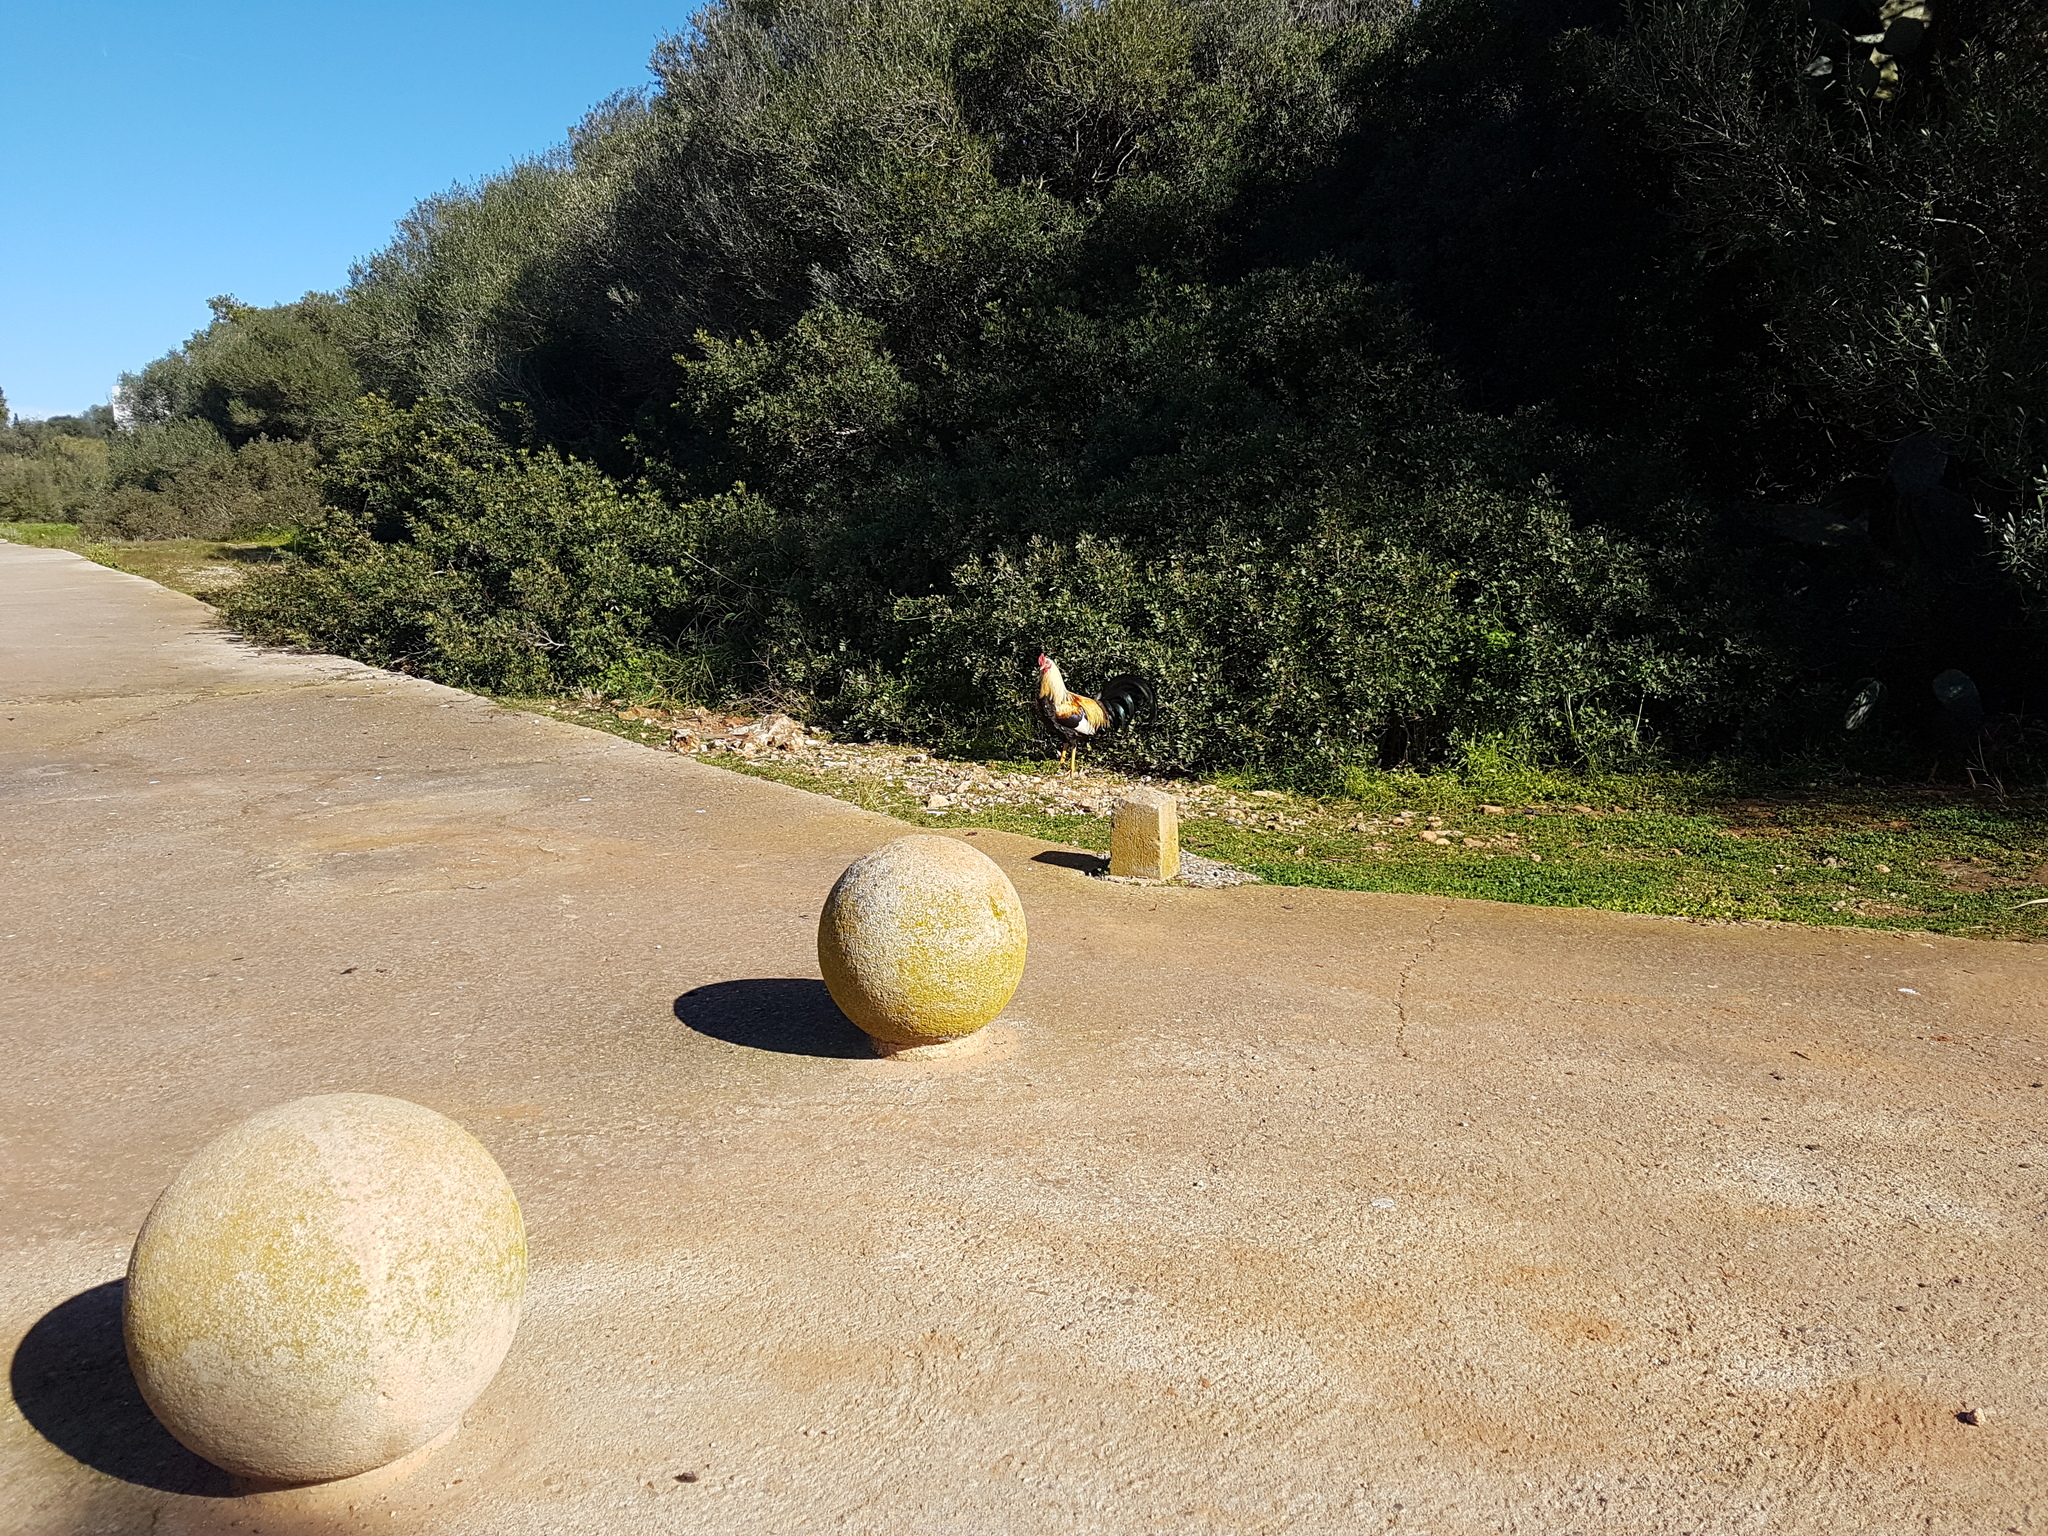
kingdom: Animalia
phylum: Chordata
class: Aves
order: Galliformes
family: Phasianidae
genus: Gallus
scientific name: Gallus gallus
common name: Red junglefowl
